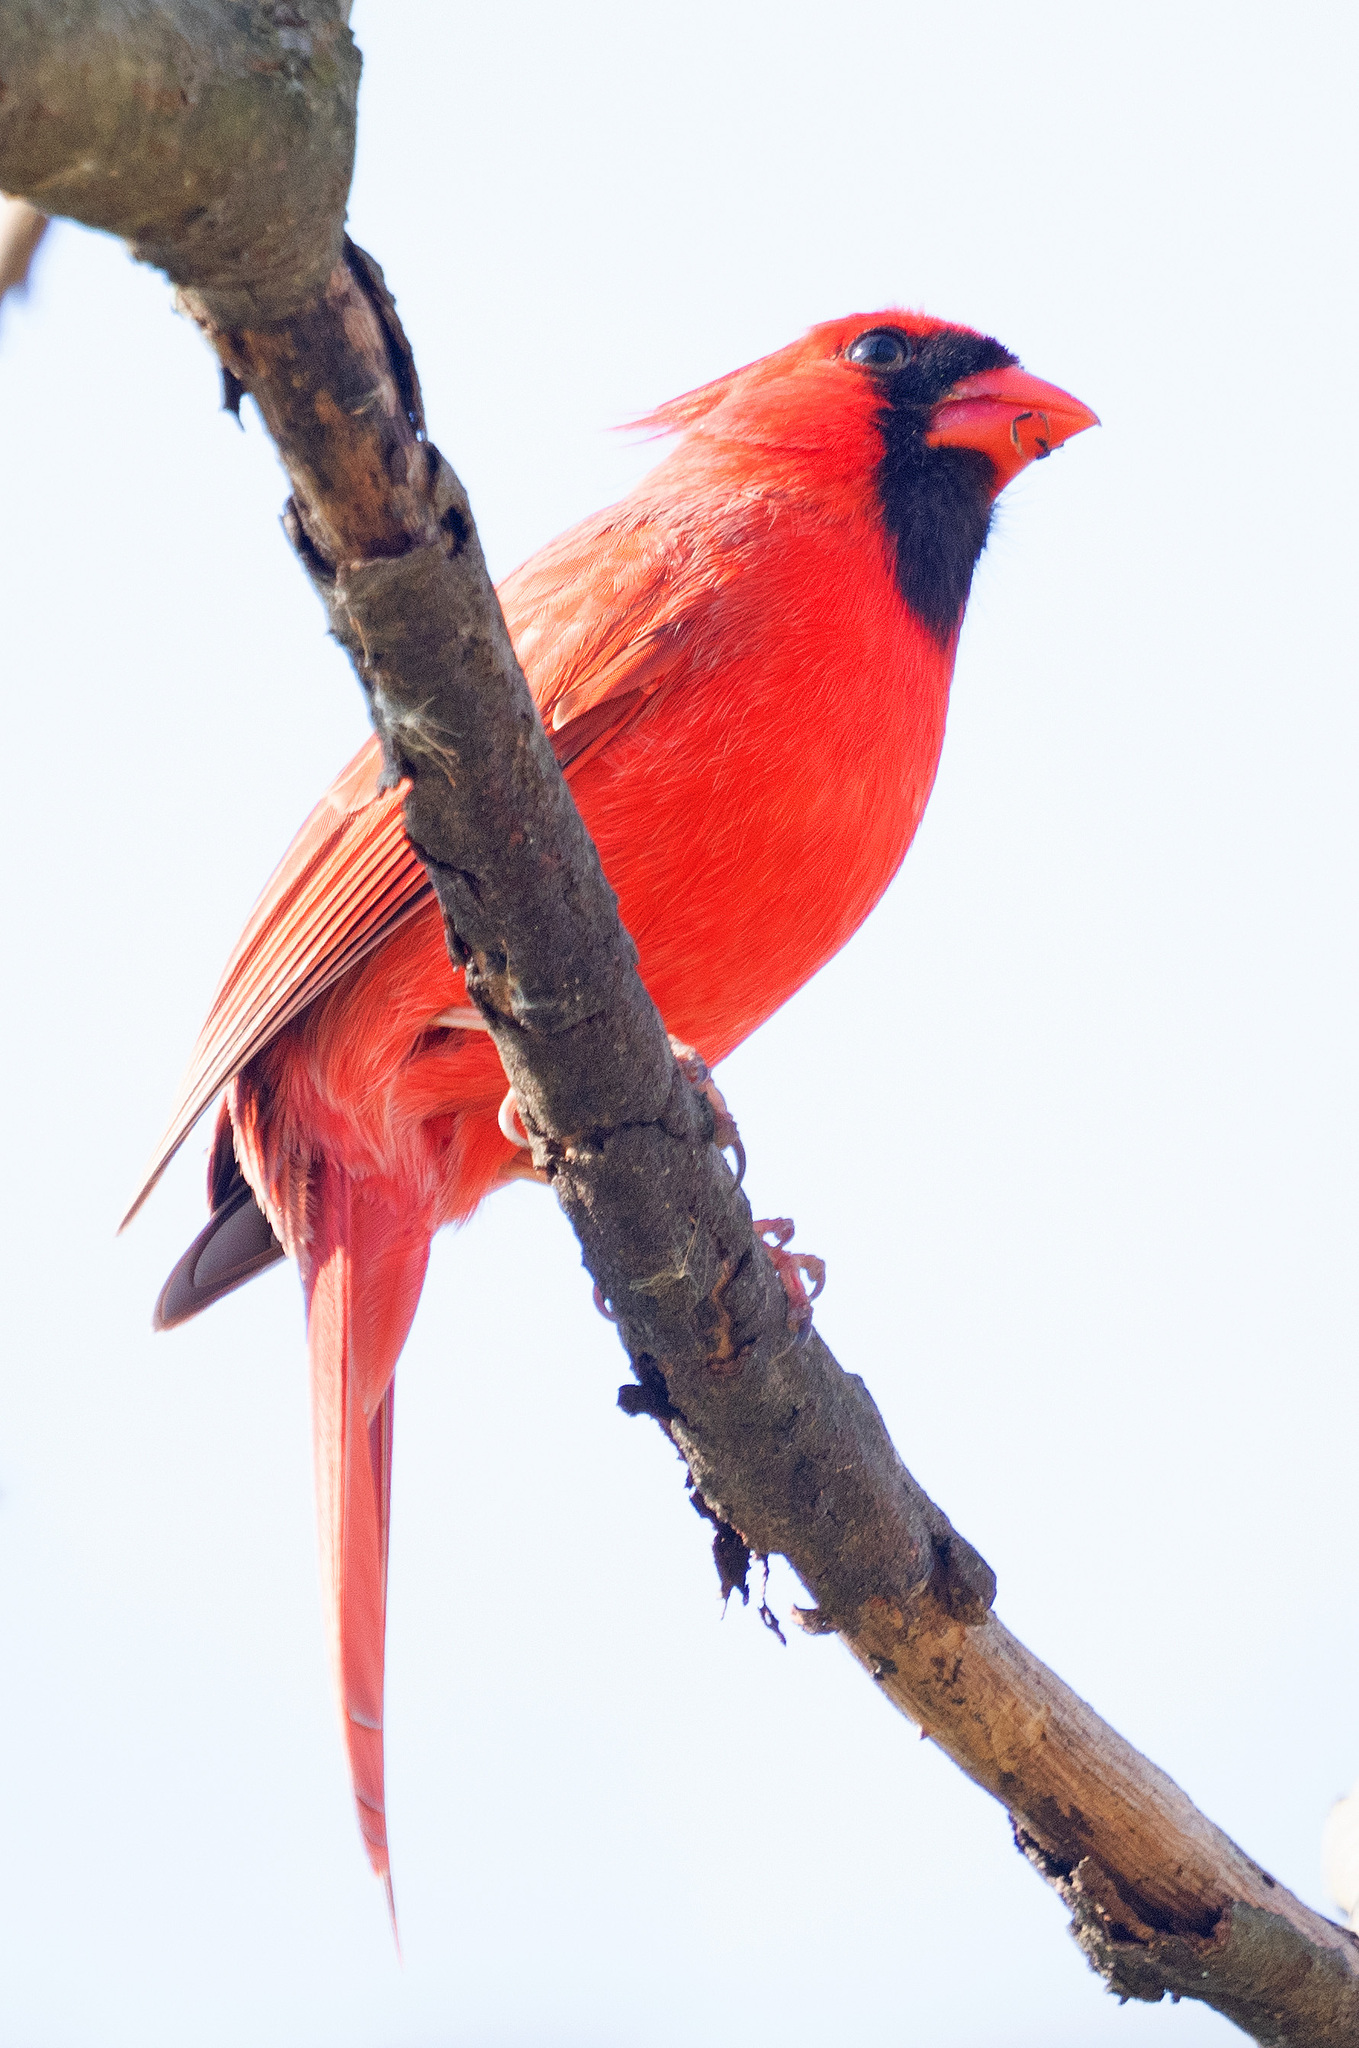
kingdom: Animalia
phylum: Chordata
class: Aves
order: Passeriformes
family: Cardinalidae
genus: Cardinalis
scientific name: Cardinalis cardinalis
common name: Northern cardinal
